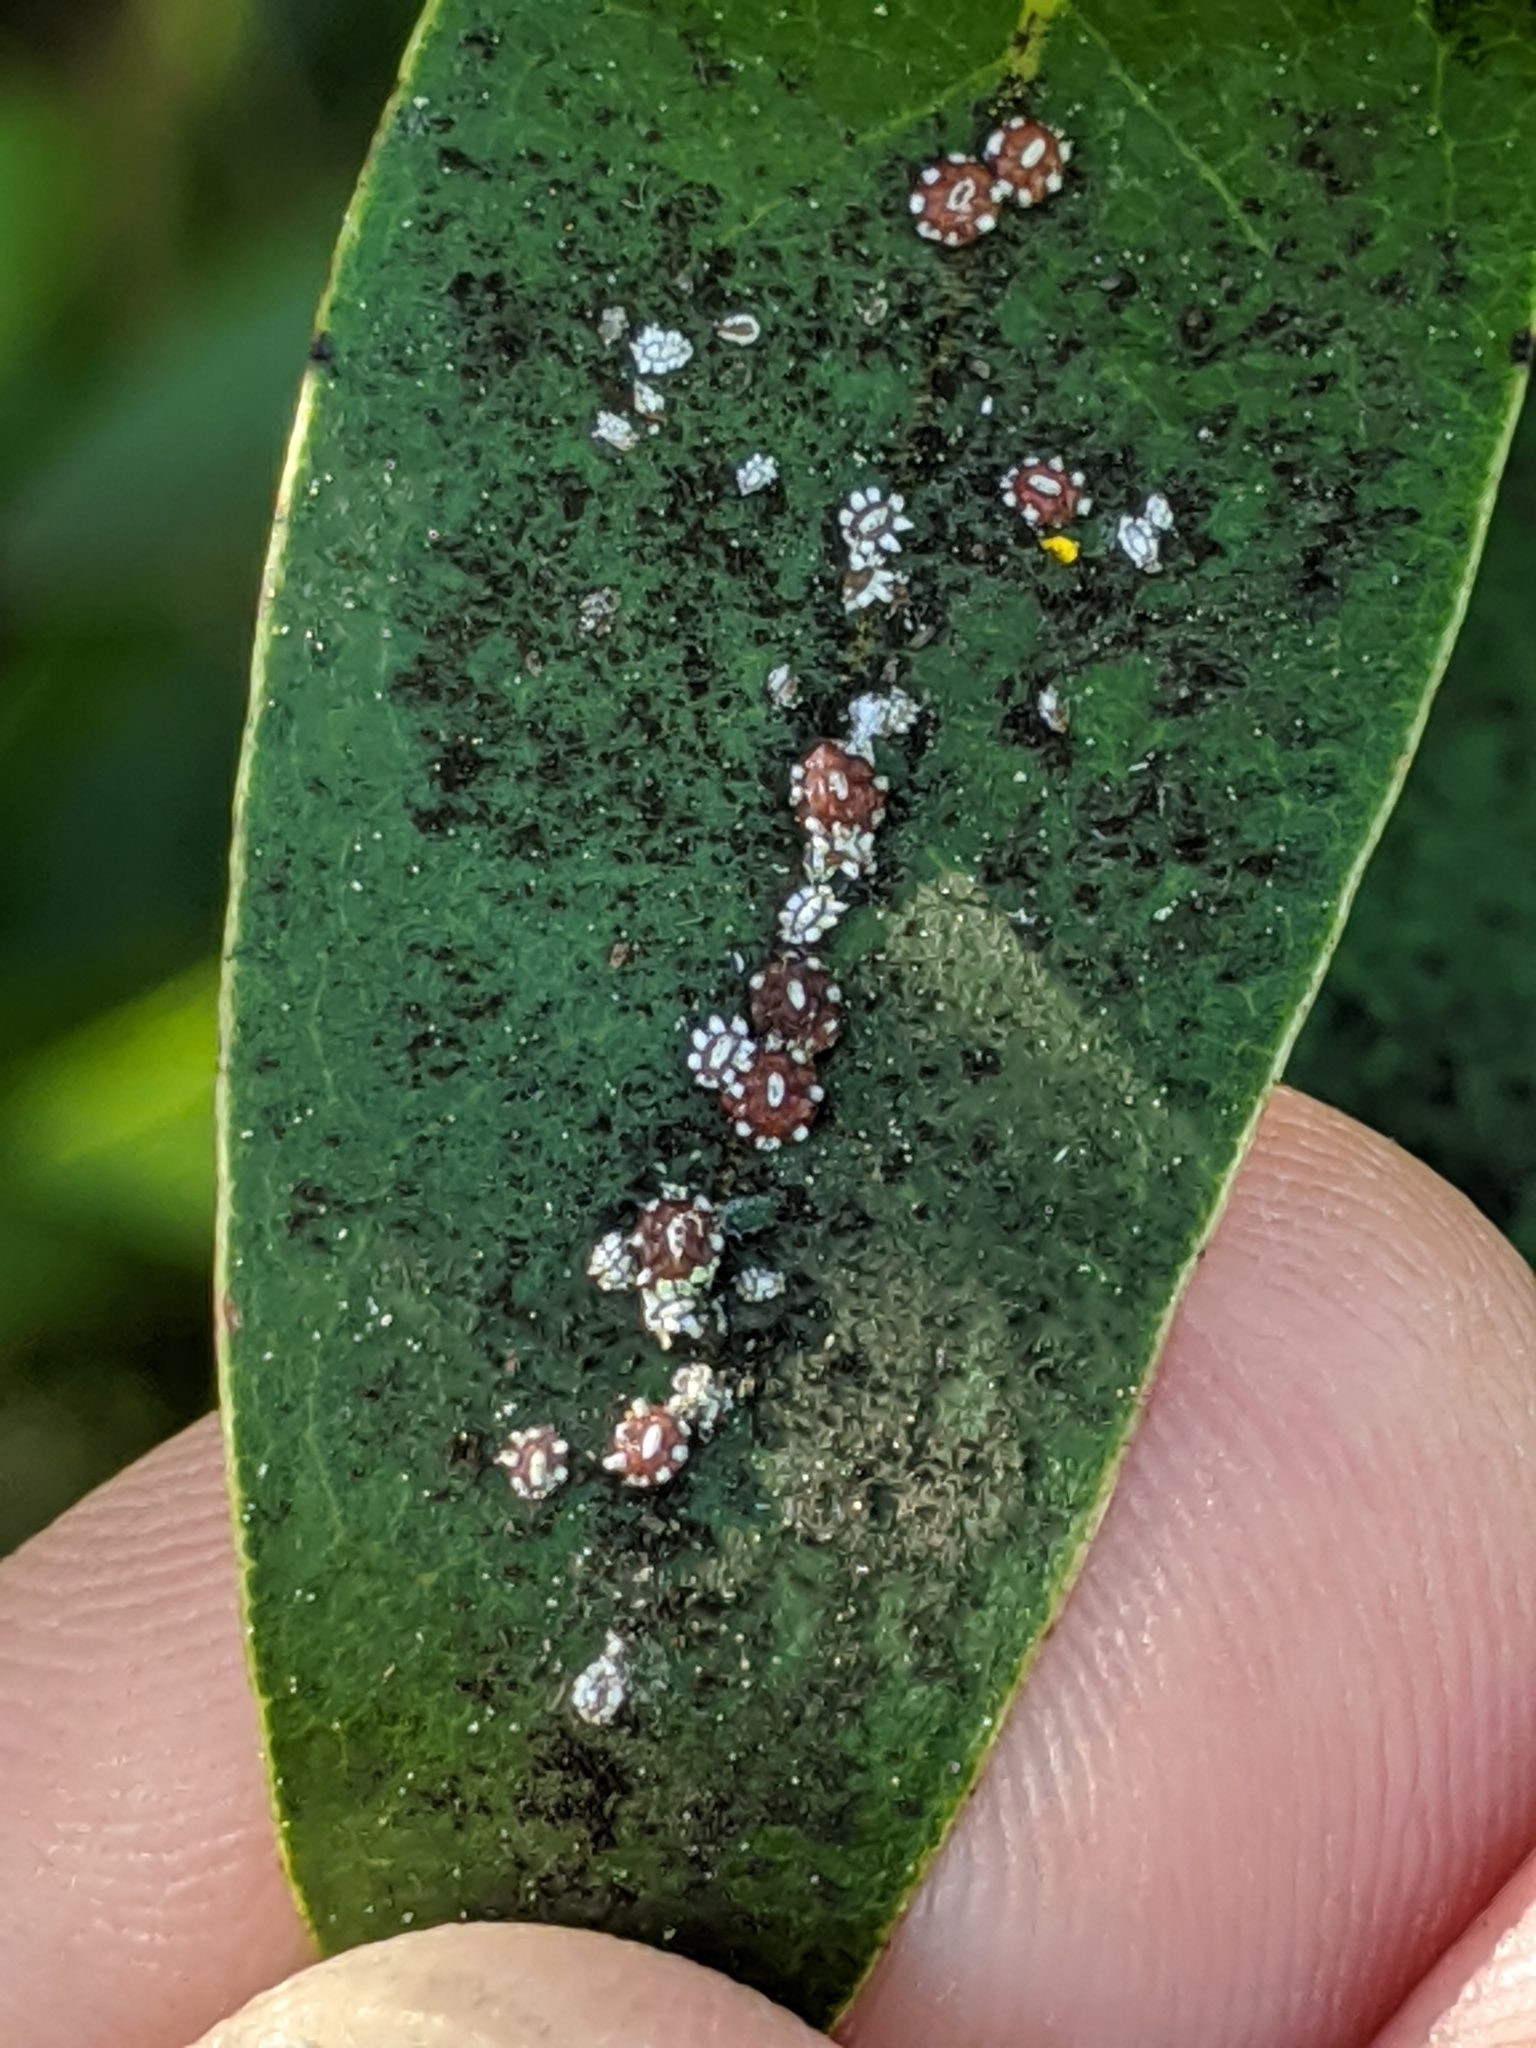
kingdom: Animalia
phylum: Arthropoda
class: Insecta
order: Hemiptera
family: Coccidae
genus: Ceroplastes
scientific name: Ceroplastes sinensis
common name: Hard wax scale
